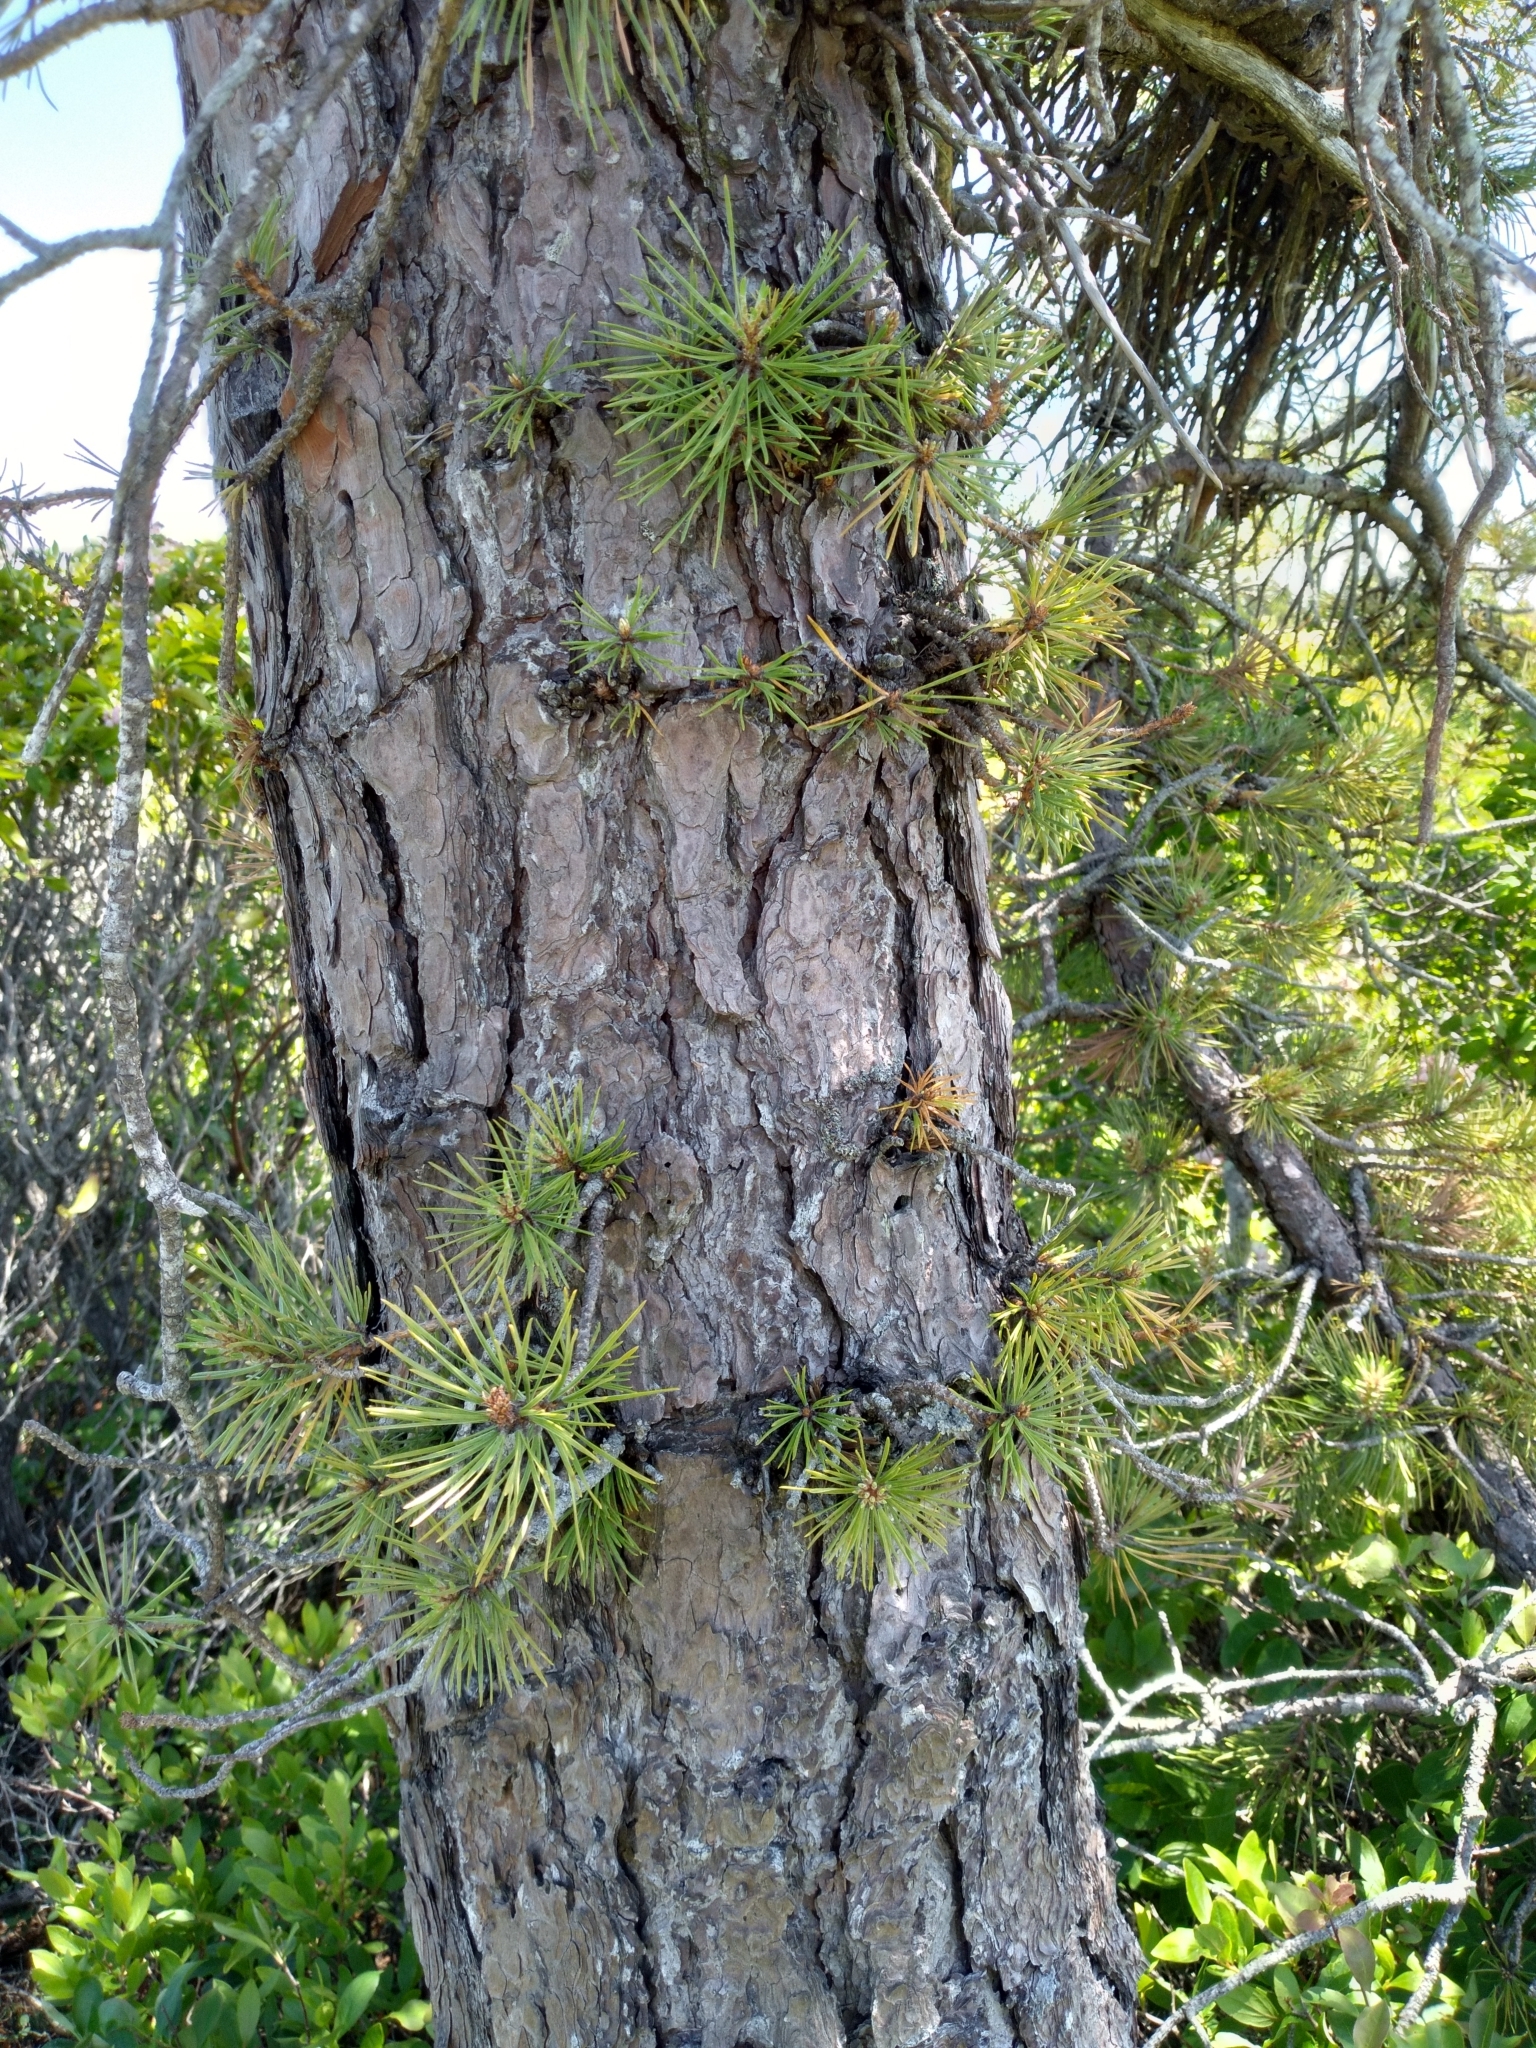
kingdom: Plantae
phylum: Tracheophyta
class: Pinopsida
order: Pinales
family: Pinaceae
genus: Pinus
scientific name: Pinus rigida
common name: Pitch pine
